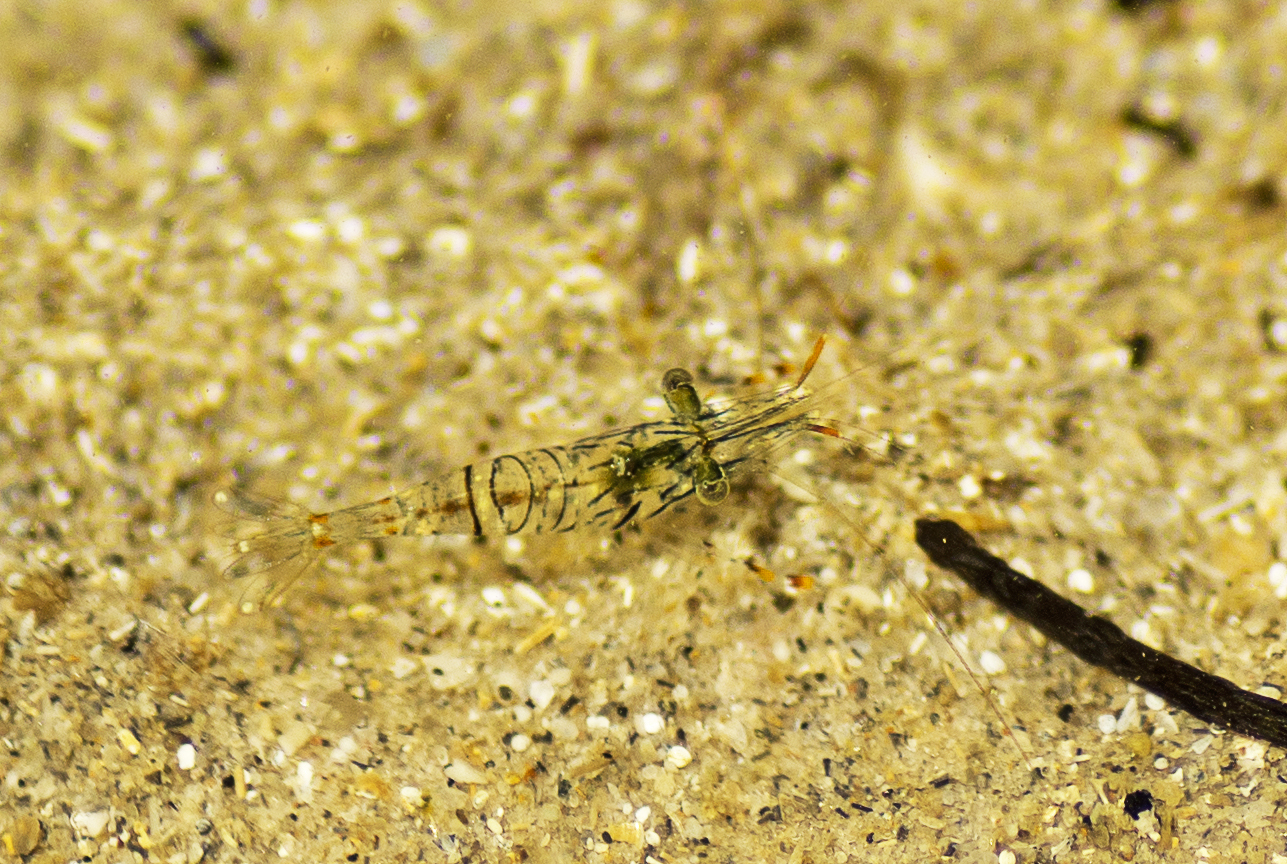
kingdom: Animalia
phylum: Arthropoda
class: Malacostraca
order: Decapoda
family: Palaemonidae
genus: Palaemon
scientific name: Palaemon dolospinus
